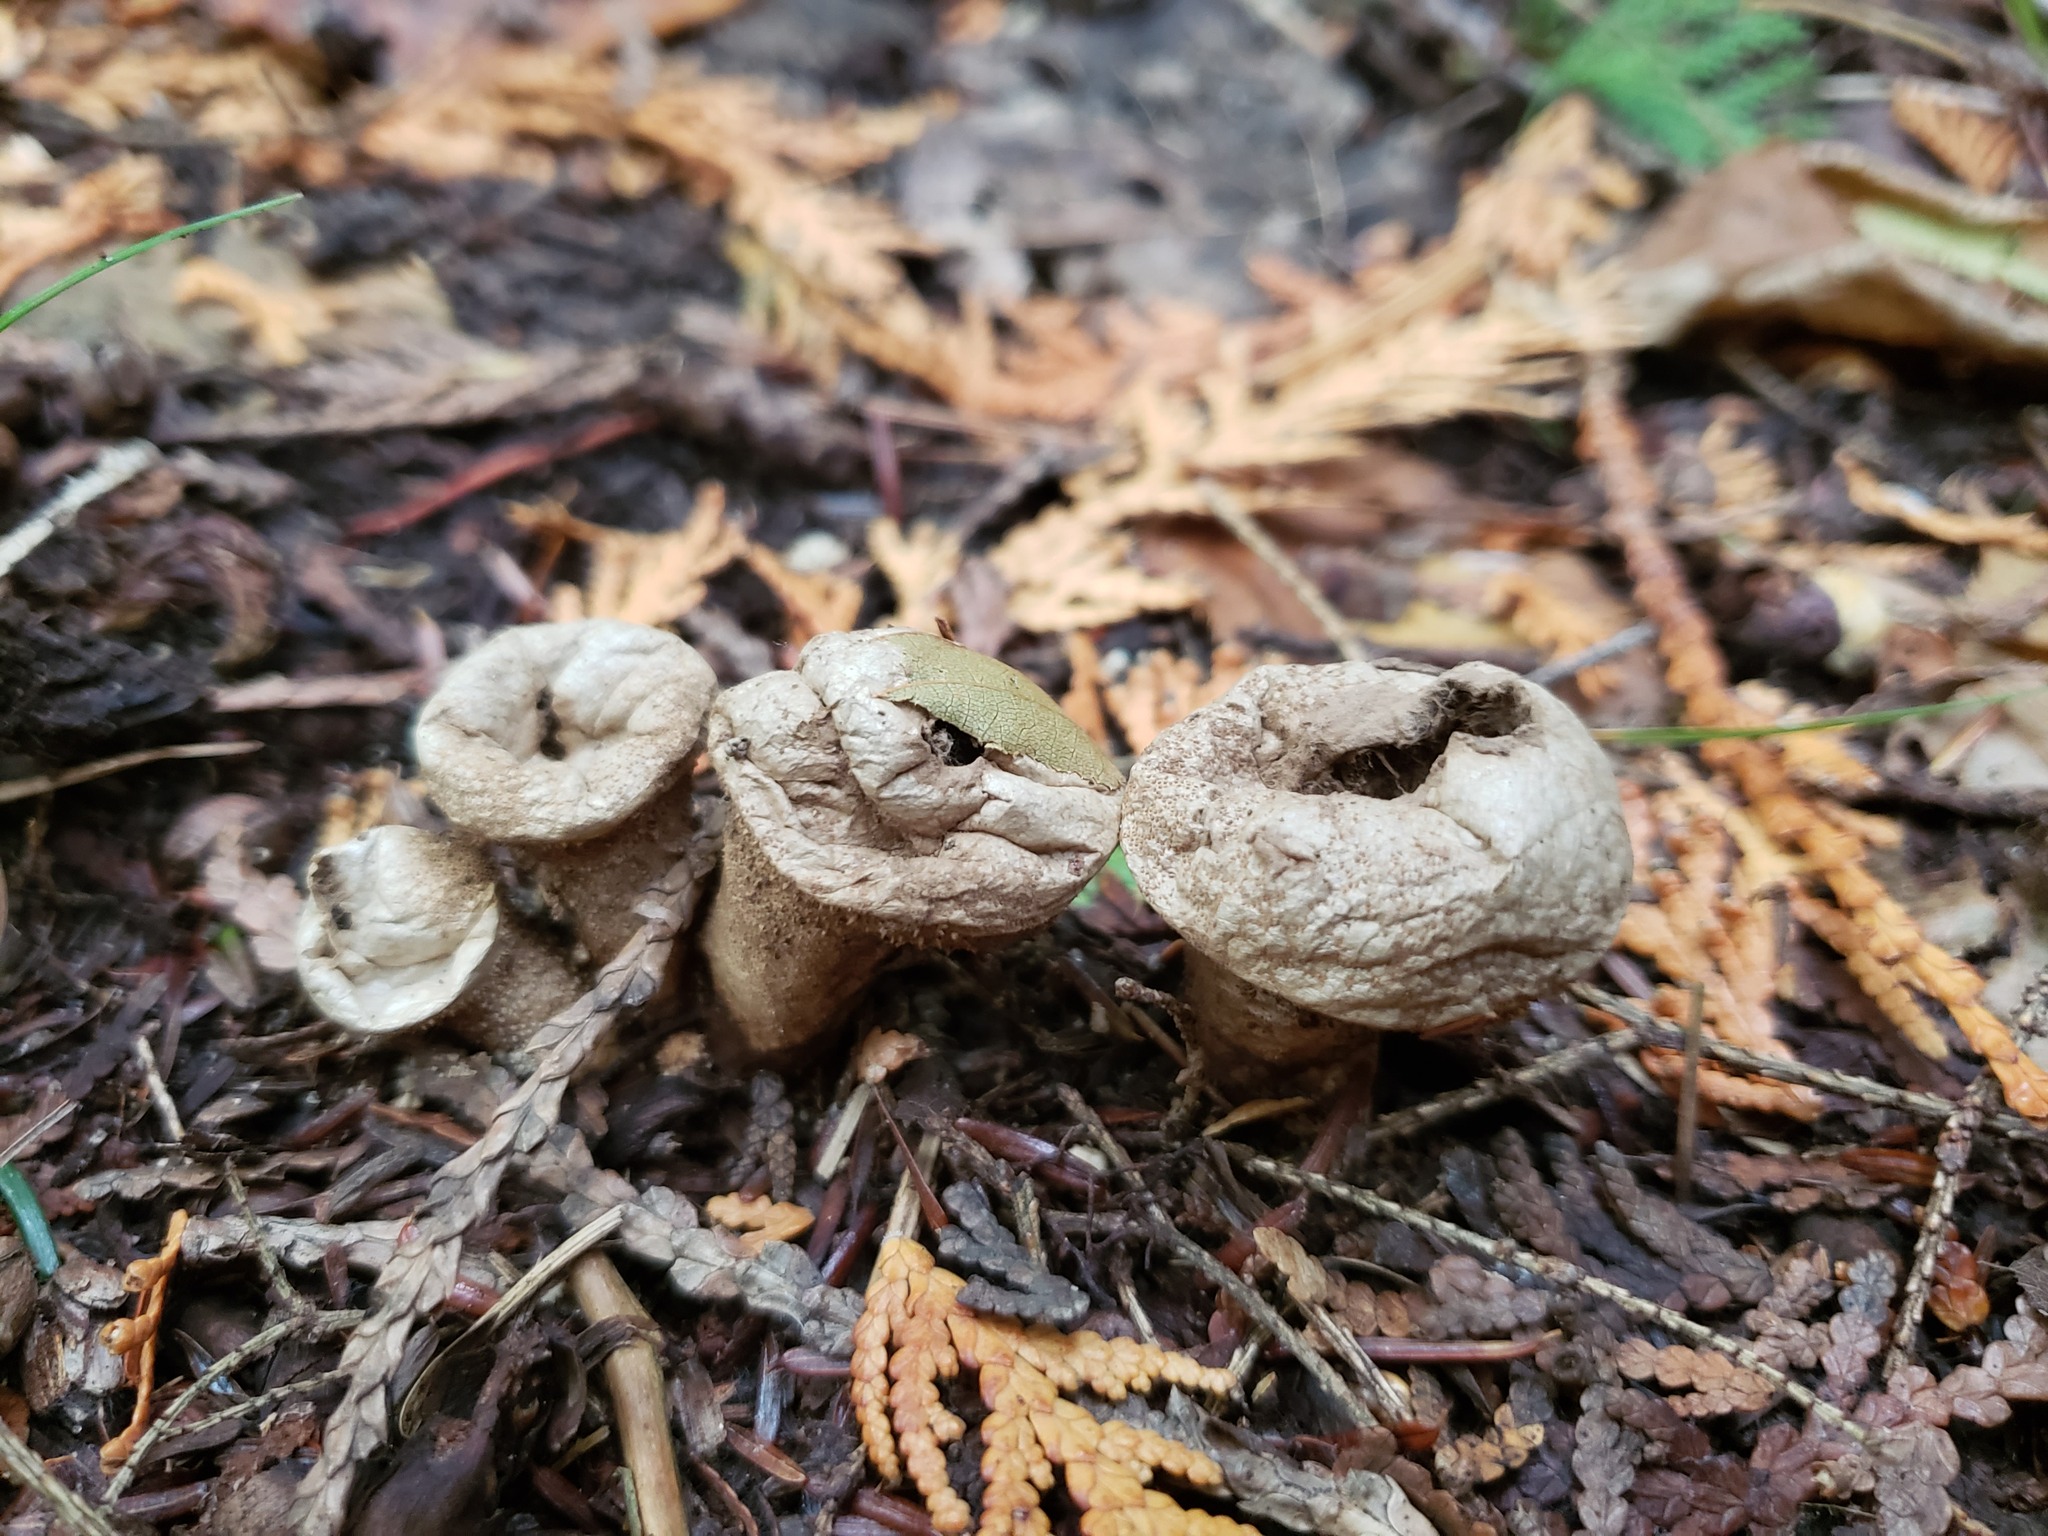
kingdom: Fungi
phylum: Basidiomycota
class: Agaricomycetes
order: Agaricales
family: Lycoperdaceae
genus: Apioperdon
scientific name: Apioperdon pyriforme
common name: Pear-shaped puffball
